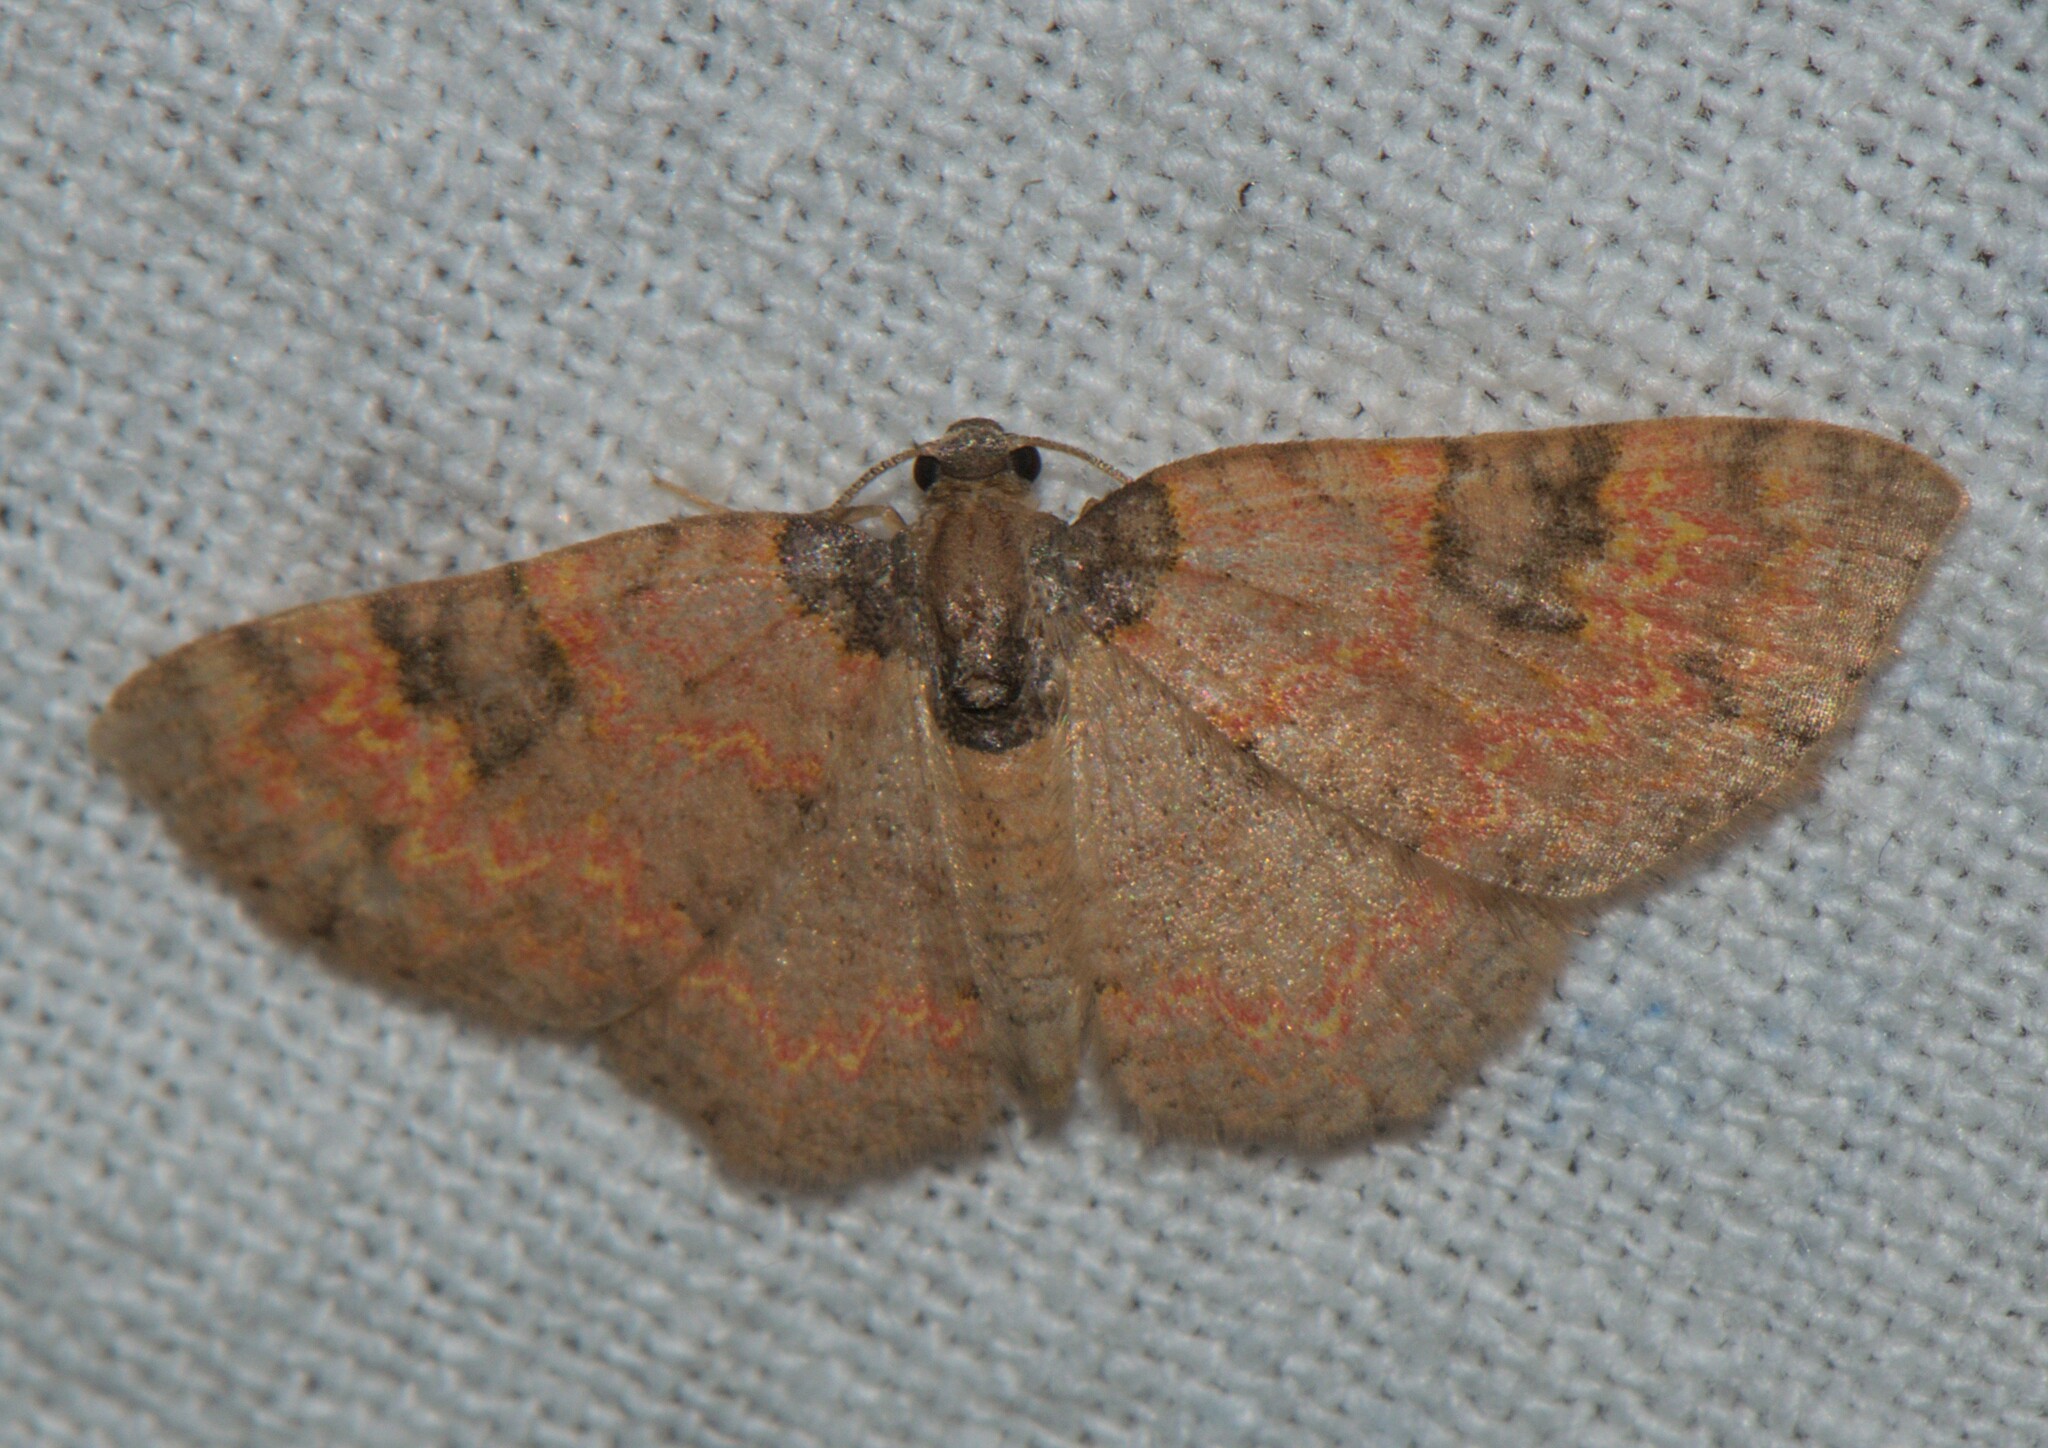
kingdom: Animalia
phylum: Arthropoda
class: Insecta
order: Lepidoptera
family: Geometridae
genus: Hydrelia
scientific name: Hydrelia bicolorata
